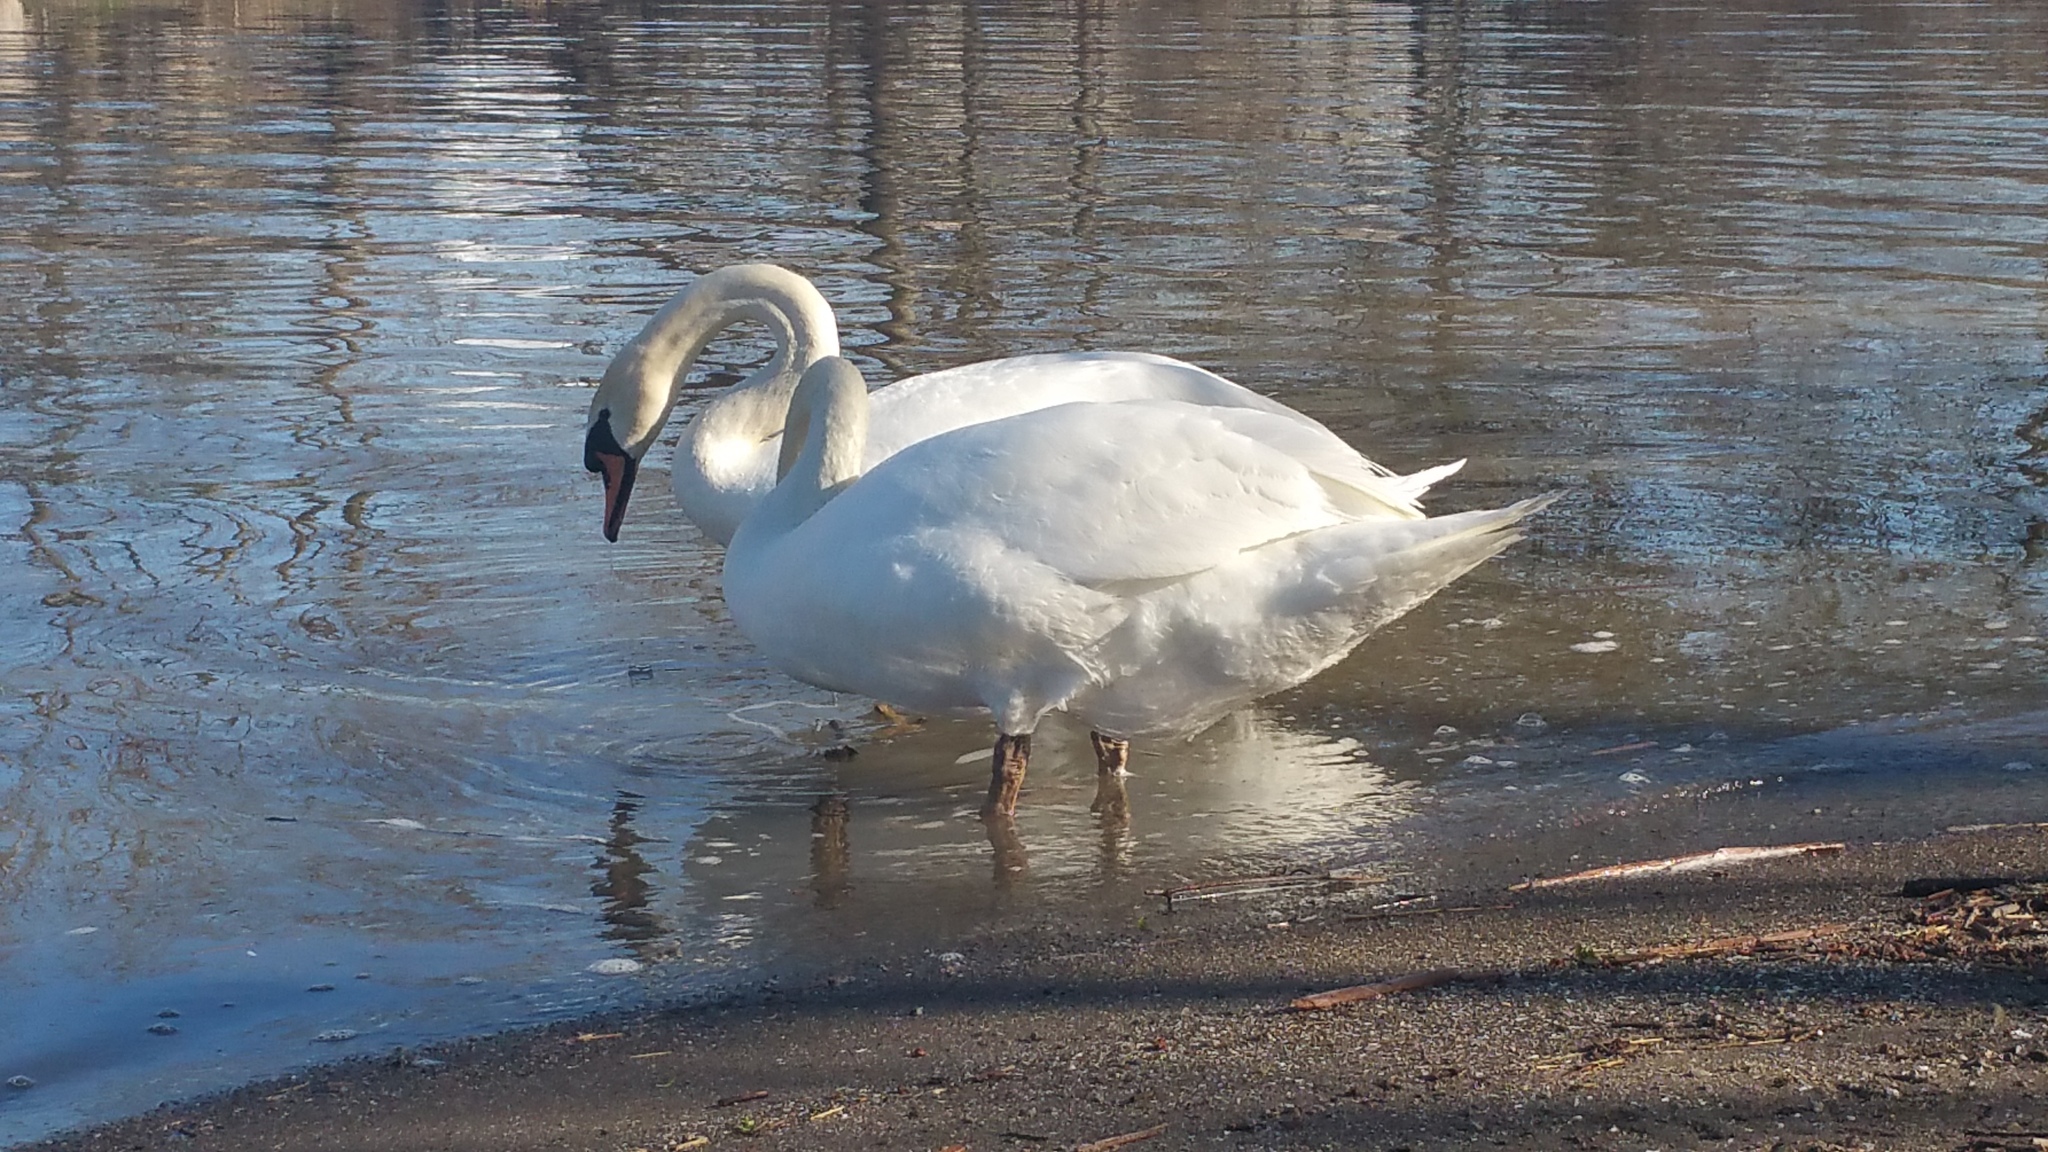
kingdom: Animalia
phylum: Chordata
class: Aves
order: Anseriformes
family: Anatidae
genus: Cygnus
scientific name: Cygnus olor
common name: Mute swan
